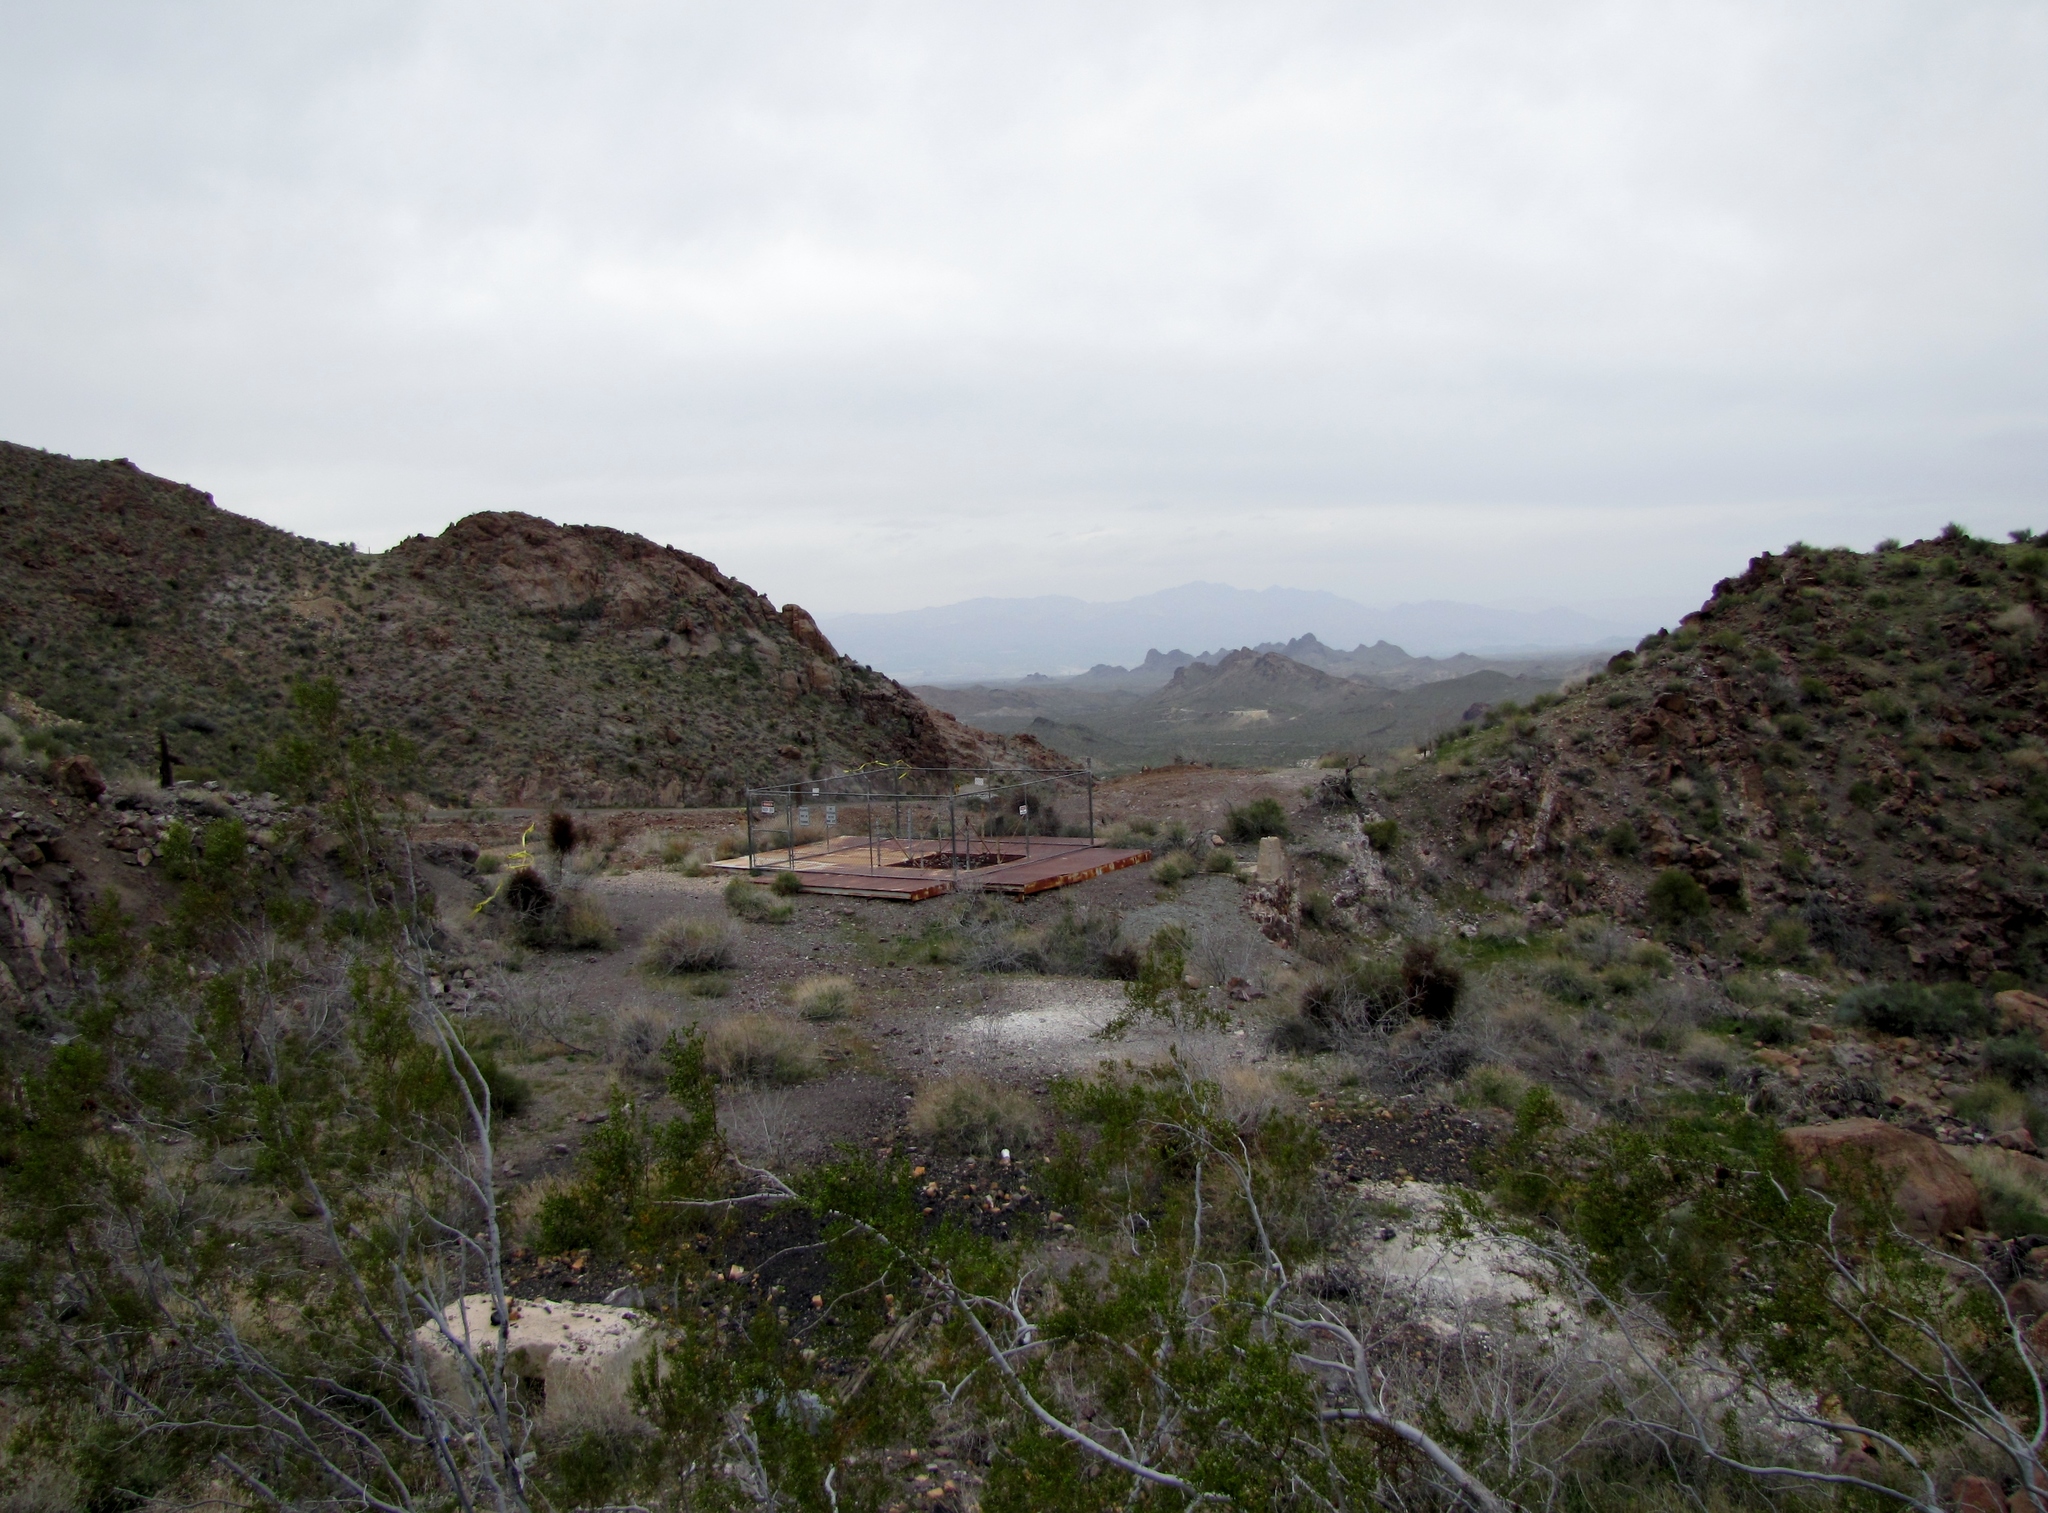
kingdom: Plantae
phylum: Tracheophyta
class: Magnoliopsida
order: Zygophyllales
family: Zygophyllaceae
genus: Larrea
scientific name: Larrea tridentata
